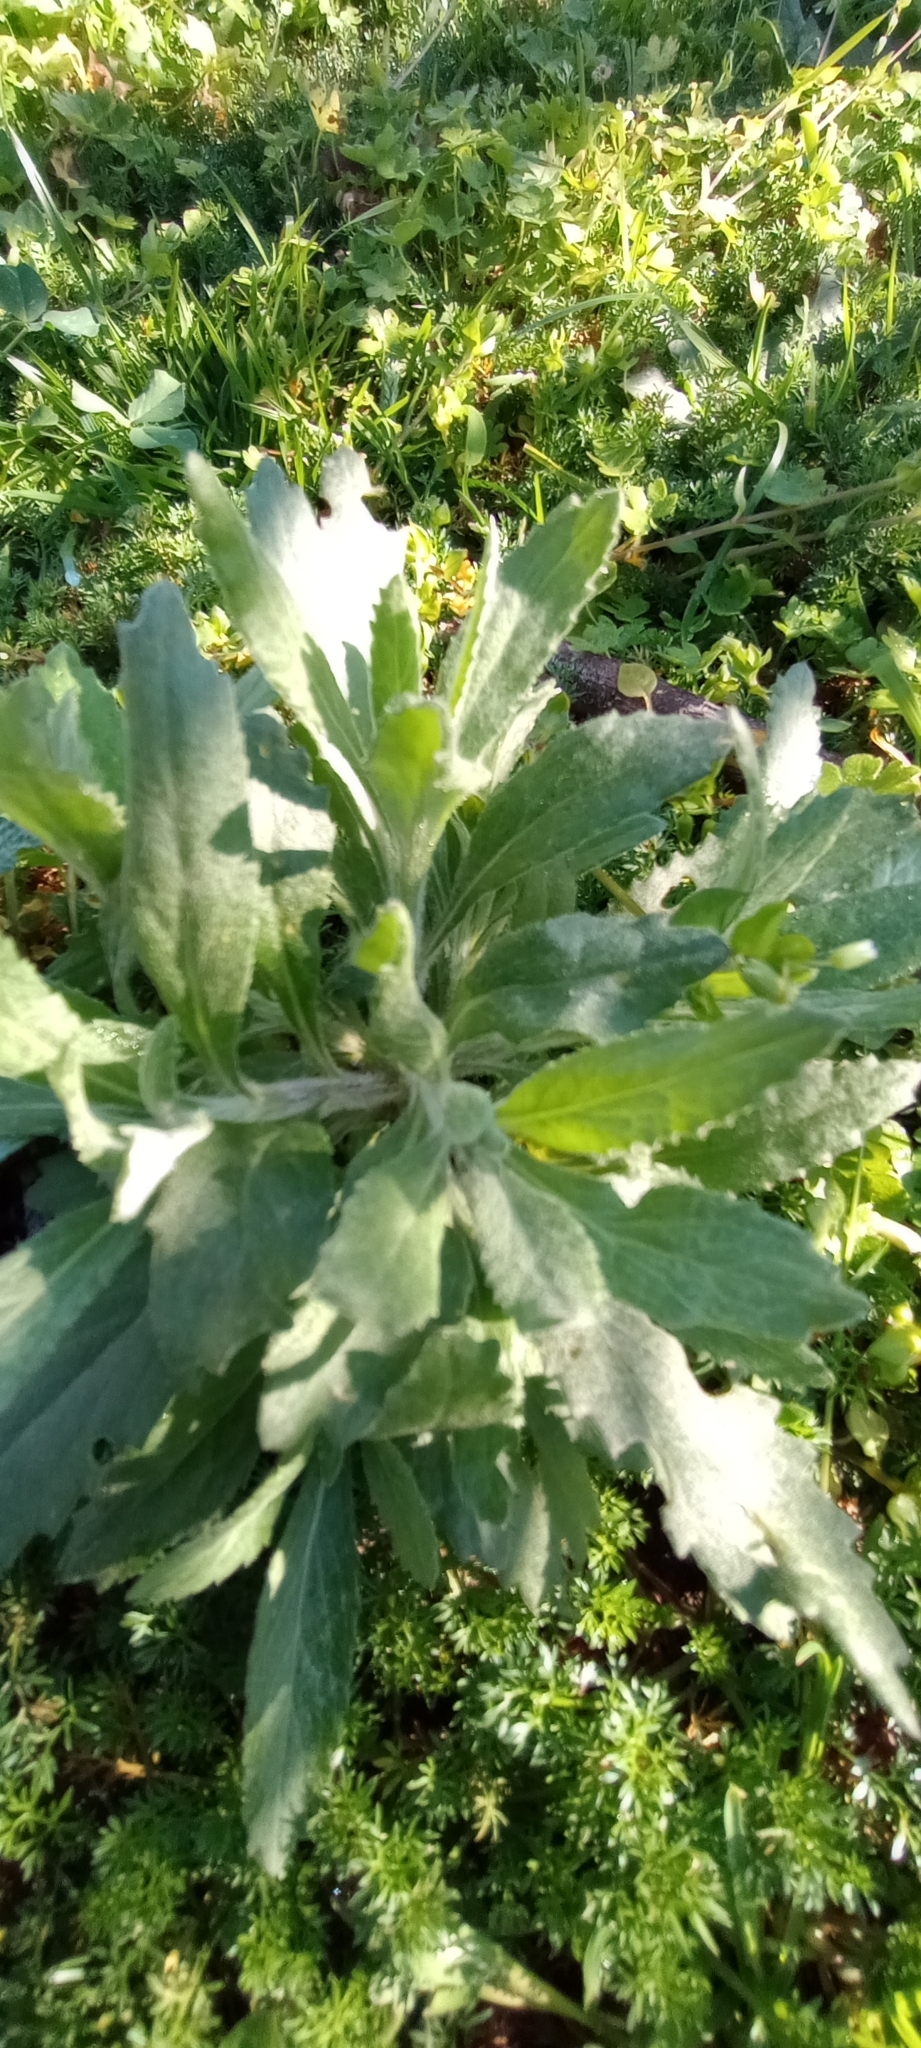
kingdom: Plantae
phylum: Tracheophyta
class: Magnoliopsida
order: Asterales
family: Asteraceae
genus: Senecio
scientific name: Senecio selloi
